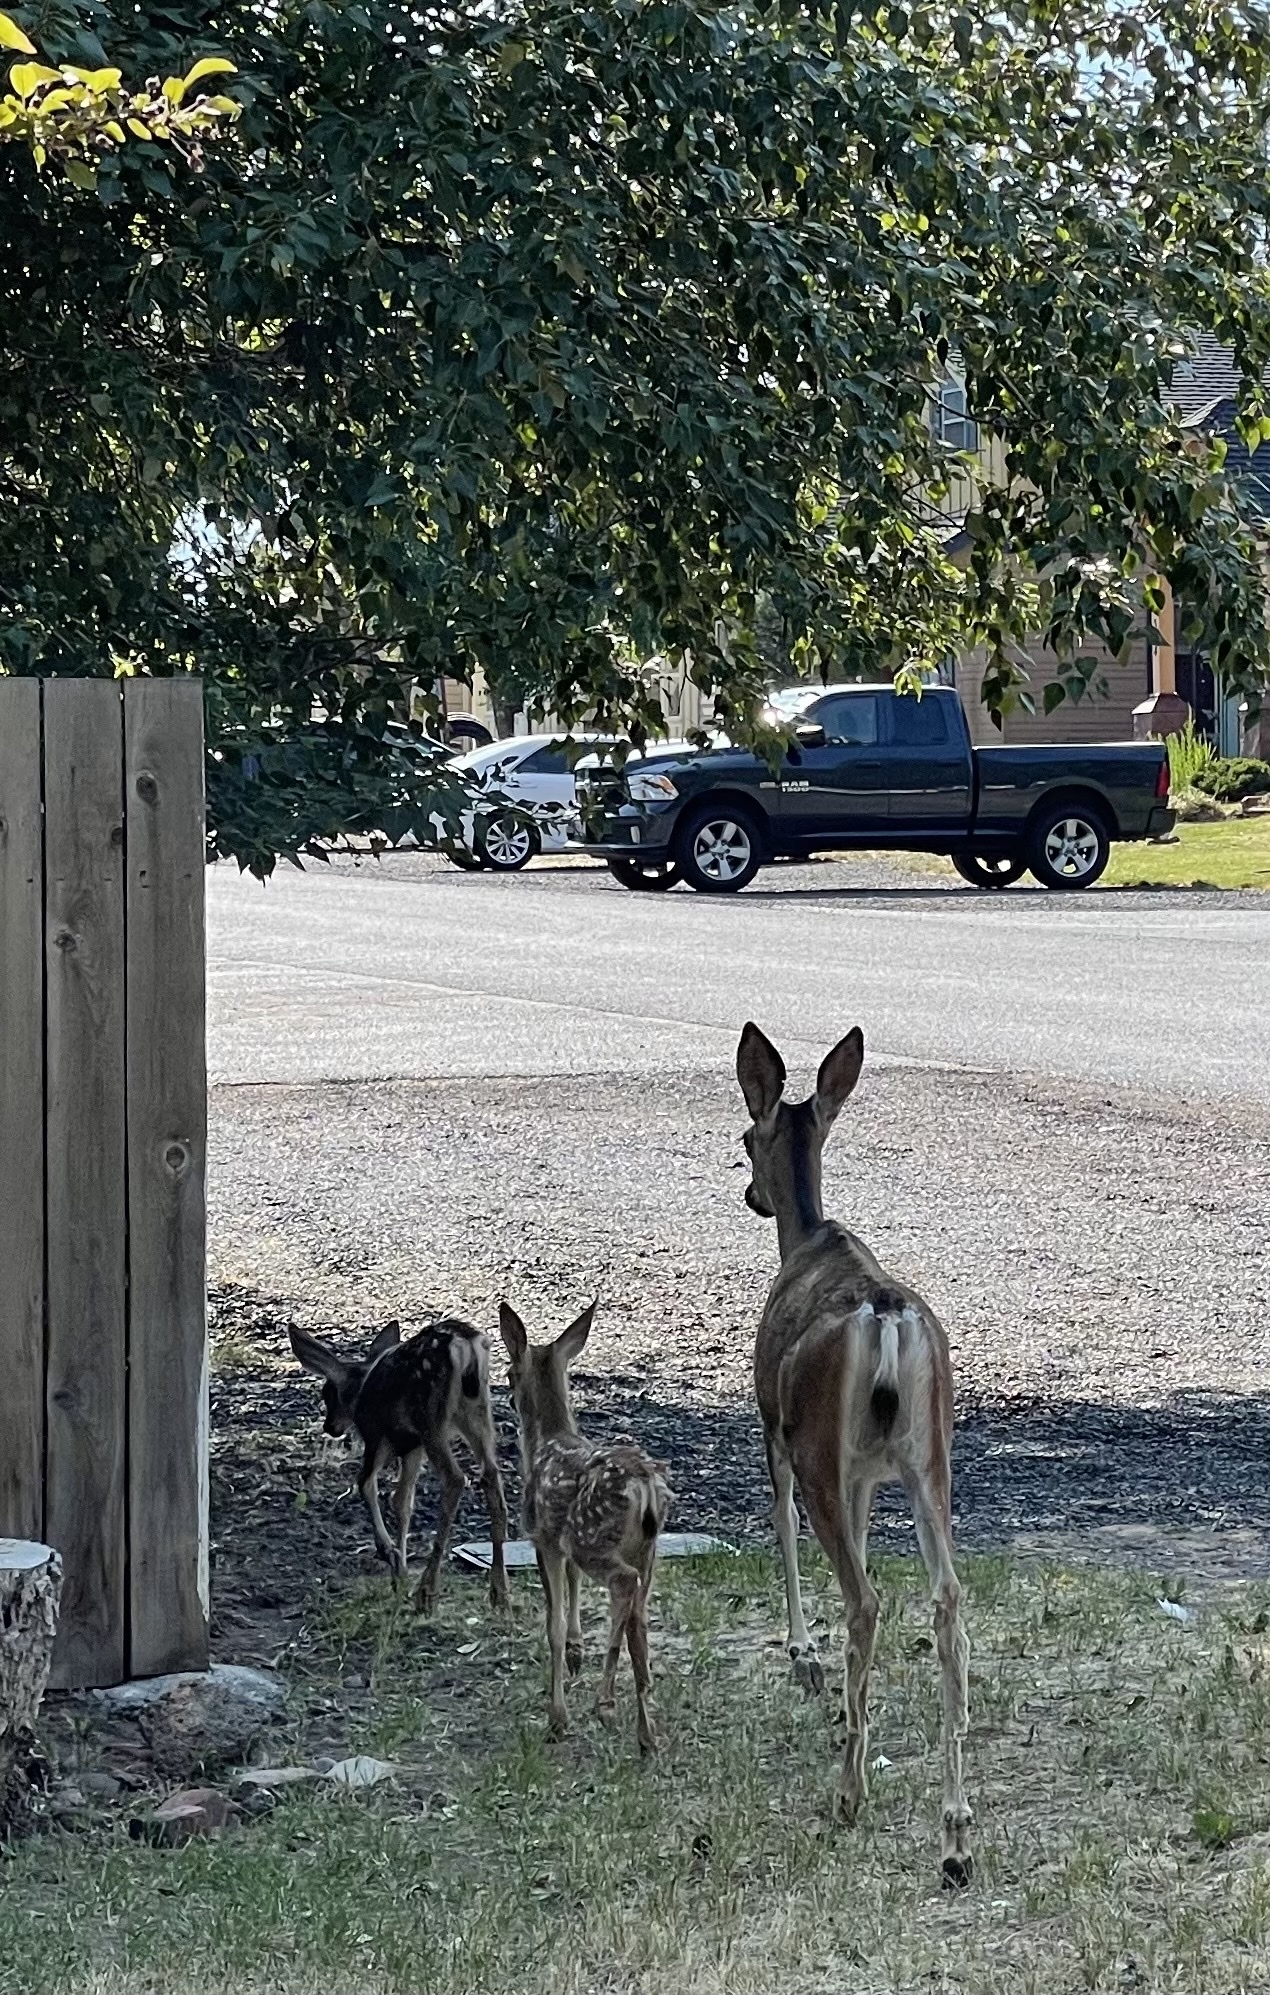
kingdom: Animalia
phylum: Chordata
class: Mammalia
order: Artiodactyla
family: Cervidae
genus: Odocoileus
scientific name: Odocoileus hemionus
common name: Mule deer
